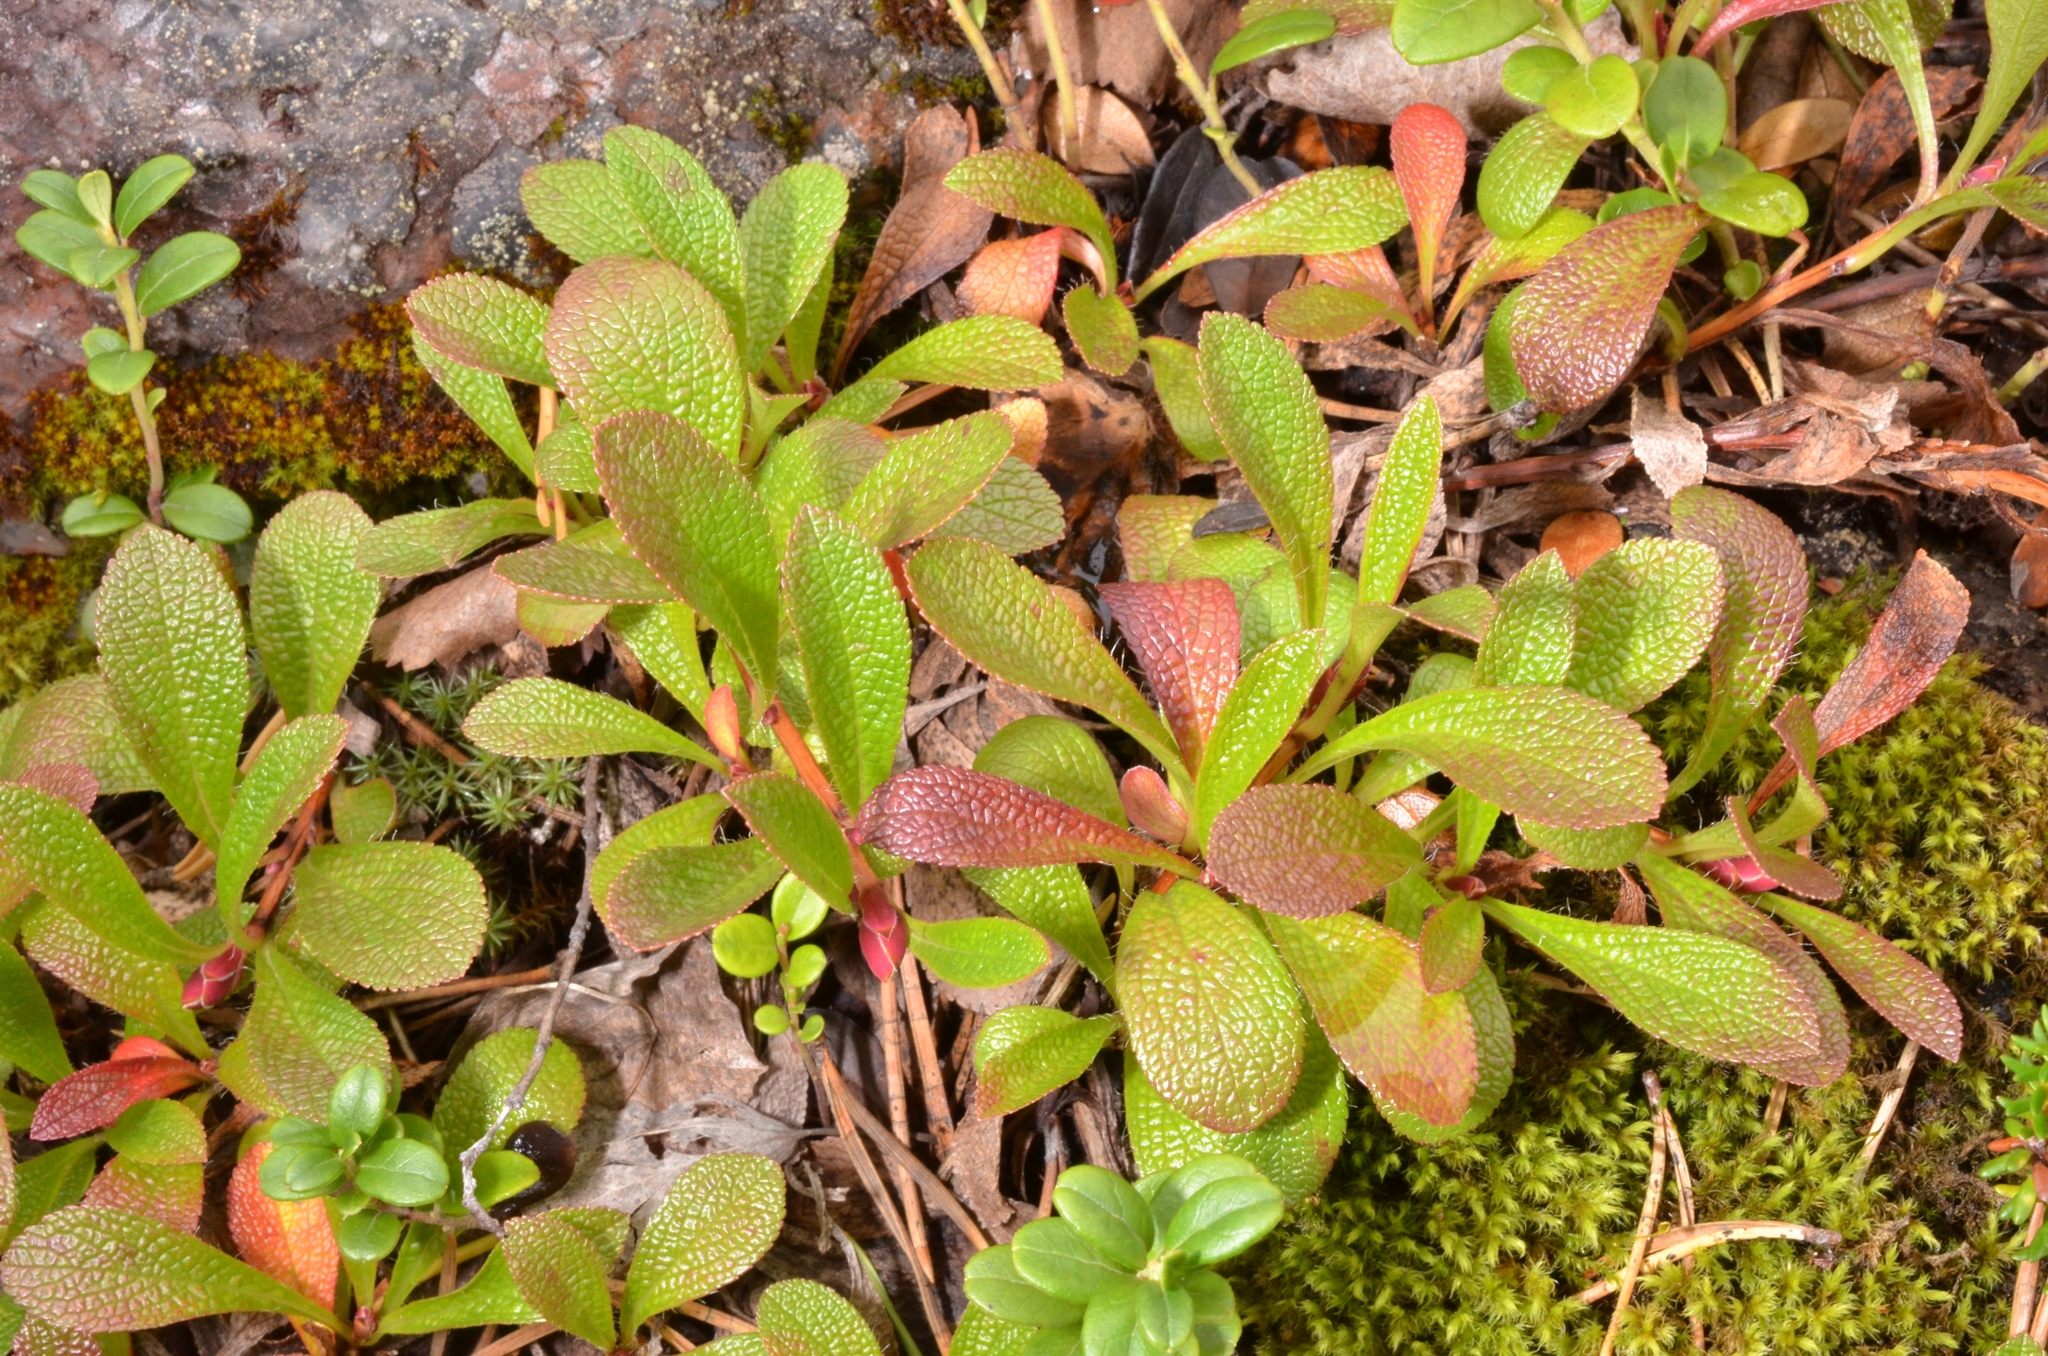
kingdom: Plantae
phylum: Tracheophyta
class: Magnoliopsida
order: Ericales
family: Ericaceae
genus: Arctostaphylos
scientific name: Arctostaphylos alpinus
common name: Alpine bearberry
